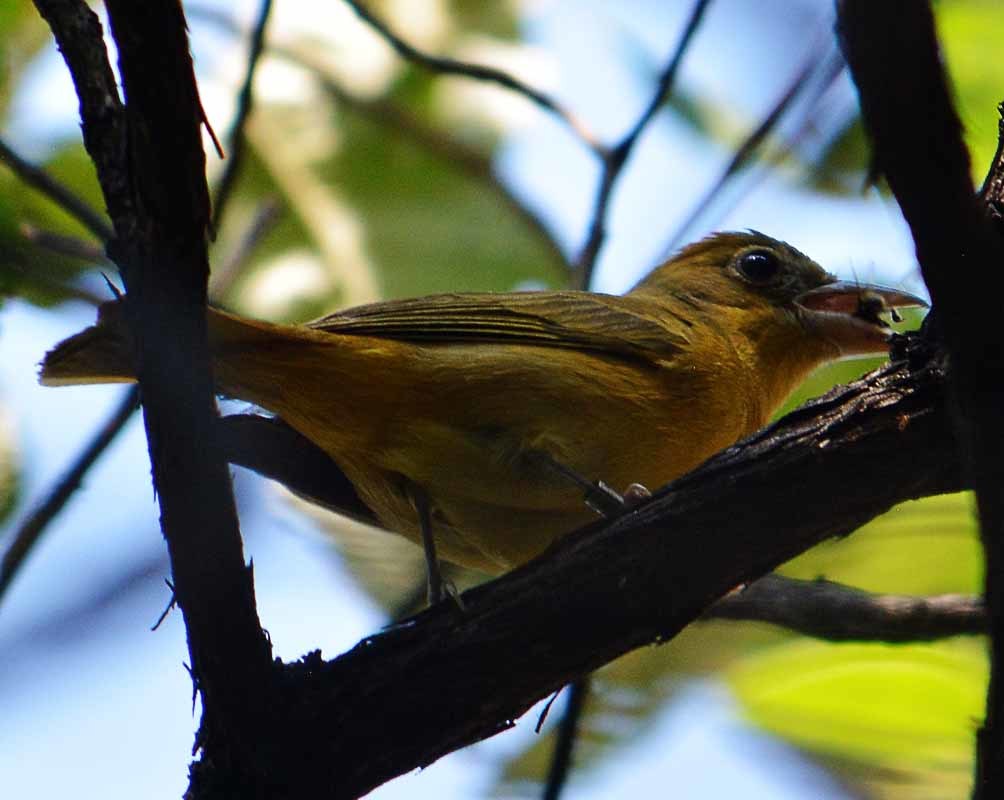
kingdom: Animalia
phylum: Chordata
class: Aves
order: Passeriformes
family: Cardinalidae
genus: Piranga
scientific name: Piranga rubra
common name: Summer tanager
